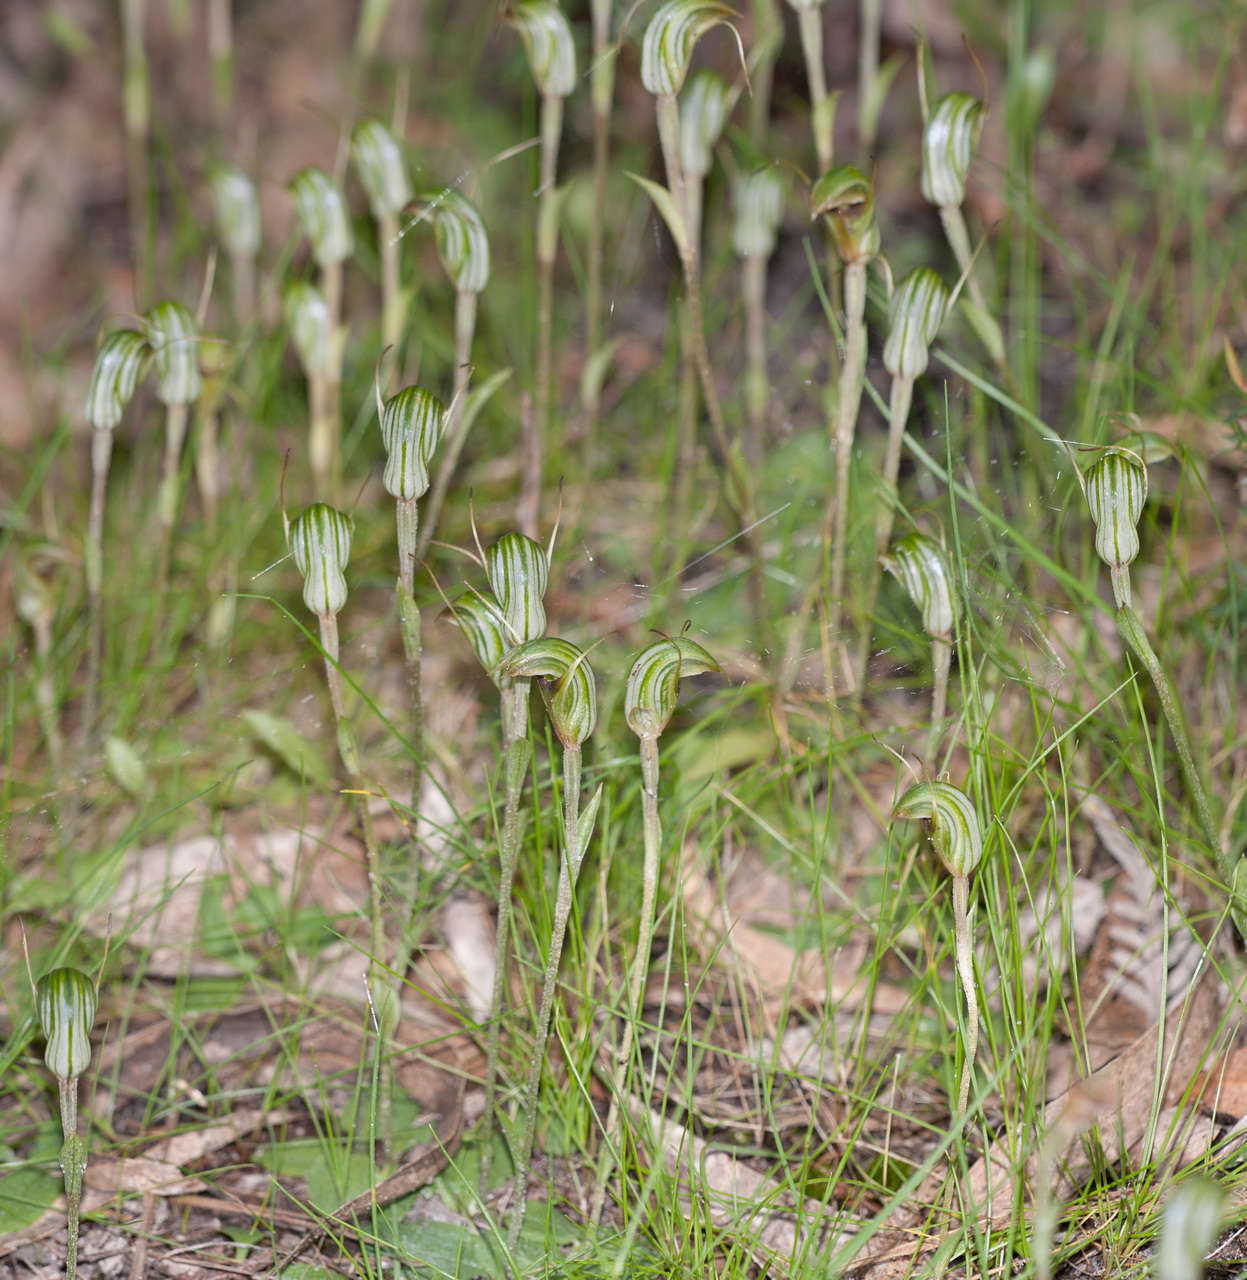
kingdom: Plantae
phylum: Tracheophyta
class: Liliopsida
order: Asparagales
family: Orchidaceae
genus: Pterostylis
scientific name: Pterostylis concinna
